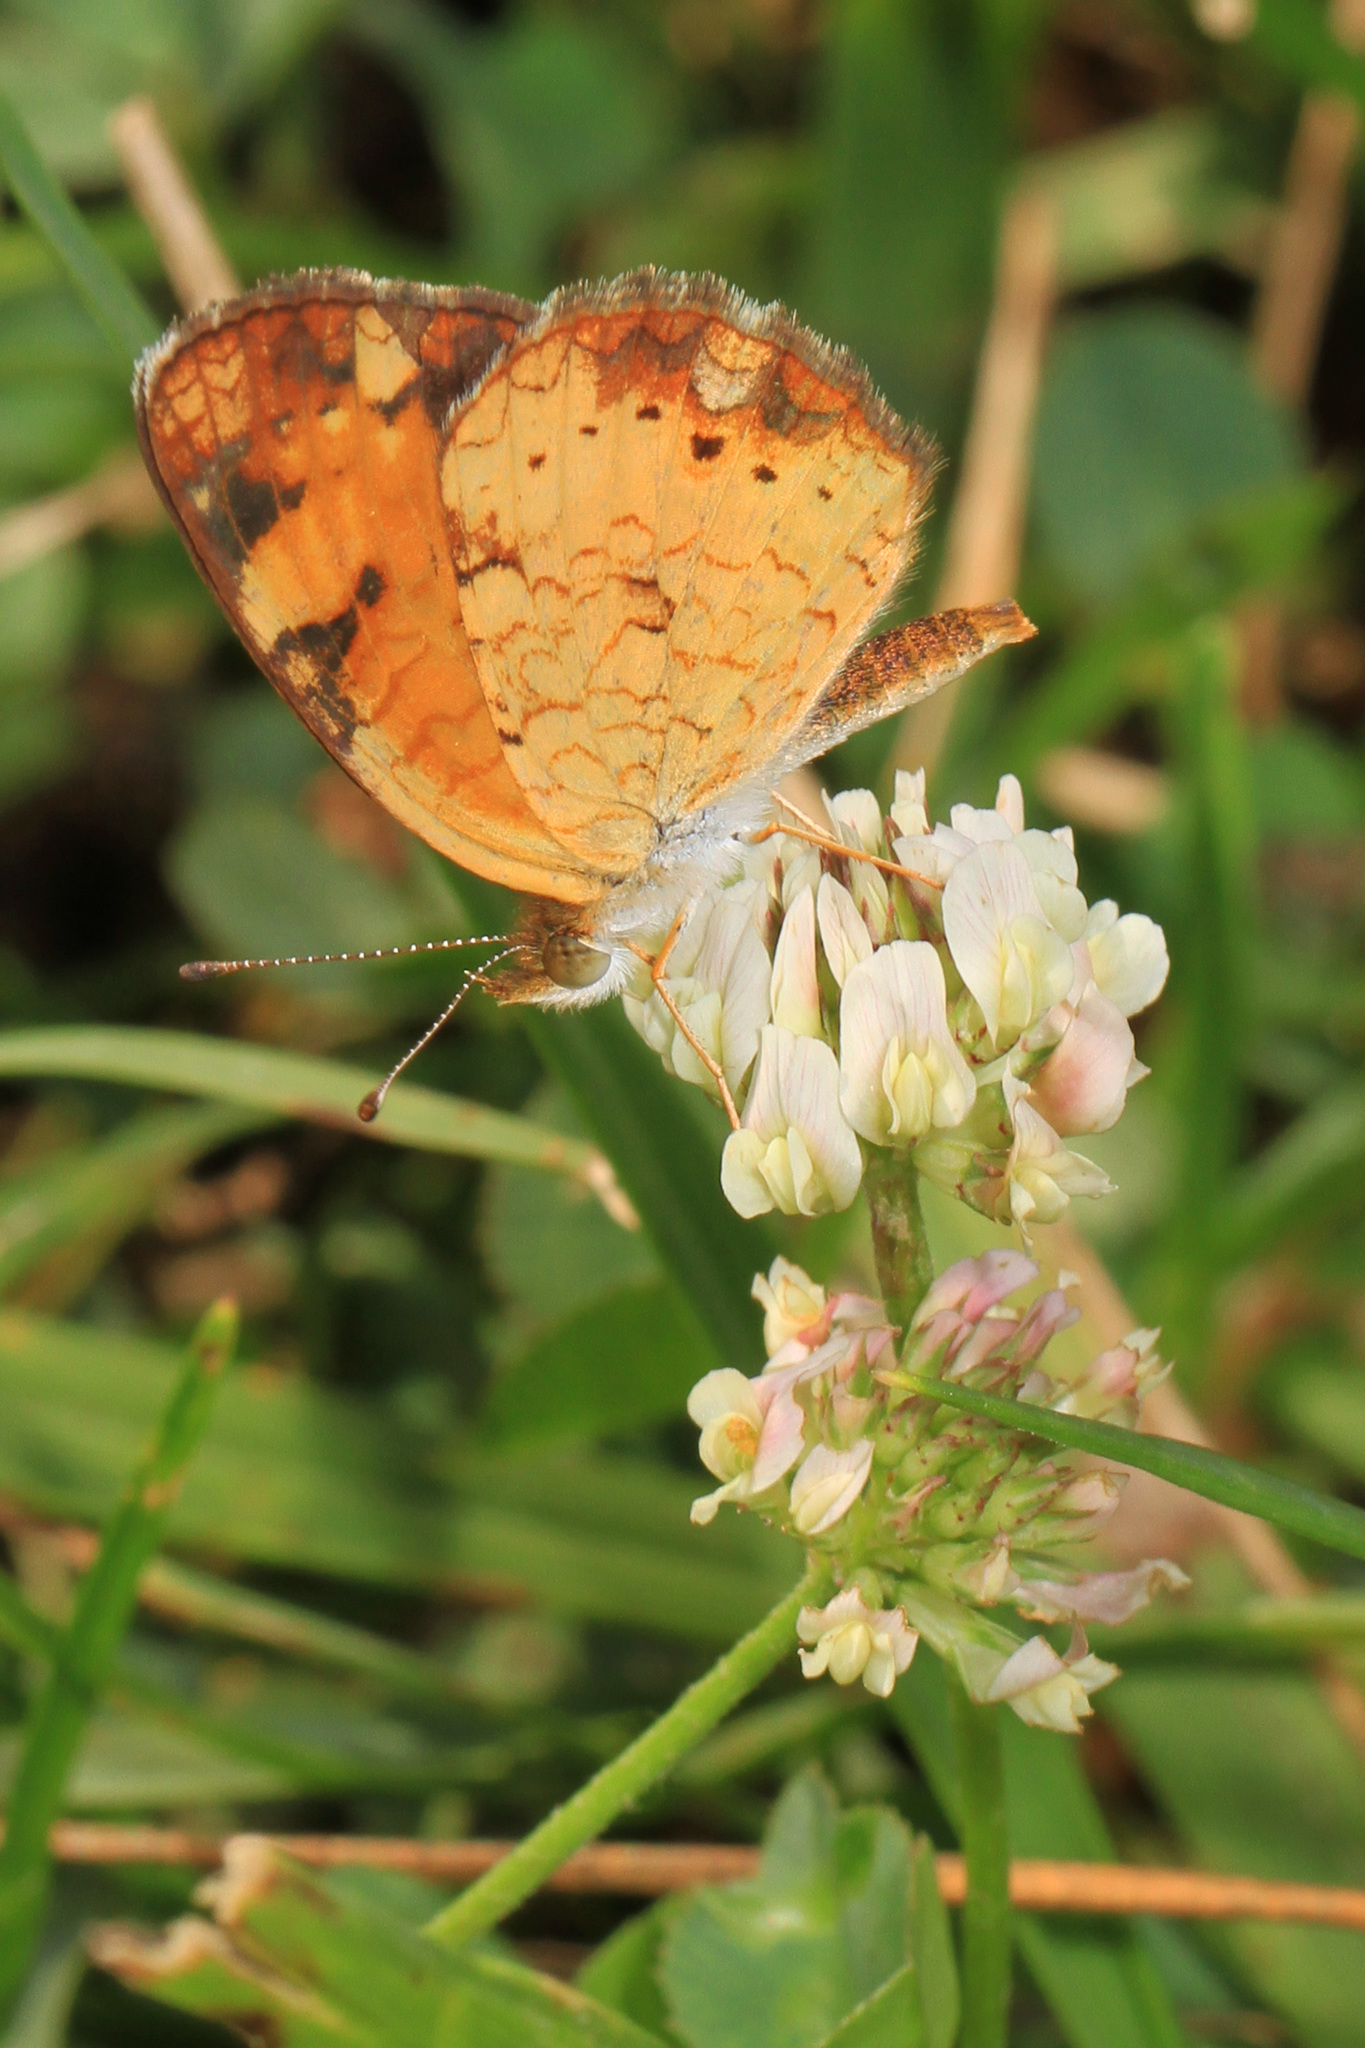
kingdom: Animalia
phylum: Arthropoda
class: Insecta
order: Lepidoptera
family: Nymphalidae
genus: Phyciodes
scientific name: Phyciodes tharos
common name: Pearl crescent
